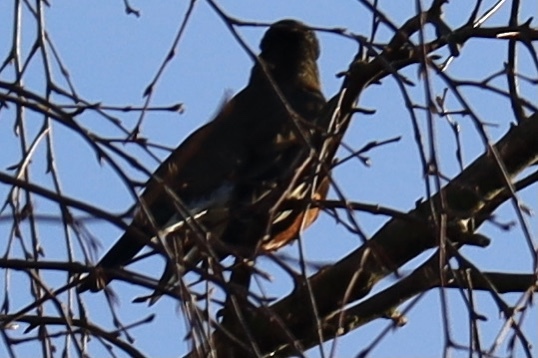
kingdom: Animalia
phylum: Chordata
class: Aves
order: Passeriformes
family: Turdidae
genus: Turdus
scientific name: Turdus migratorius
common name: American robin
